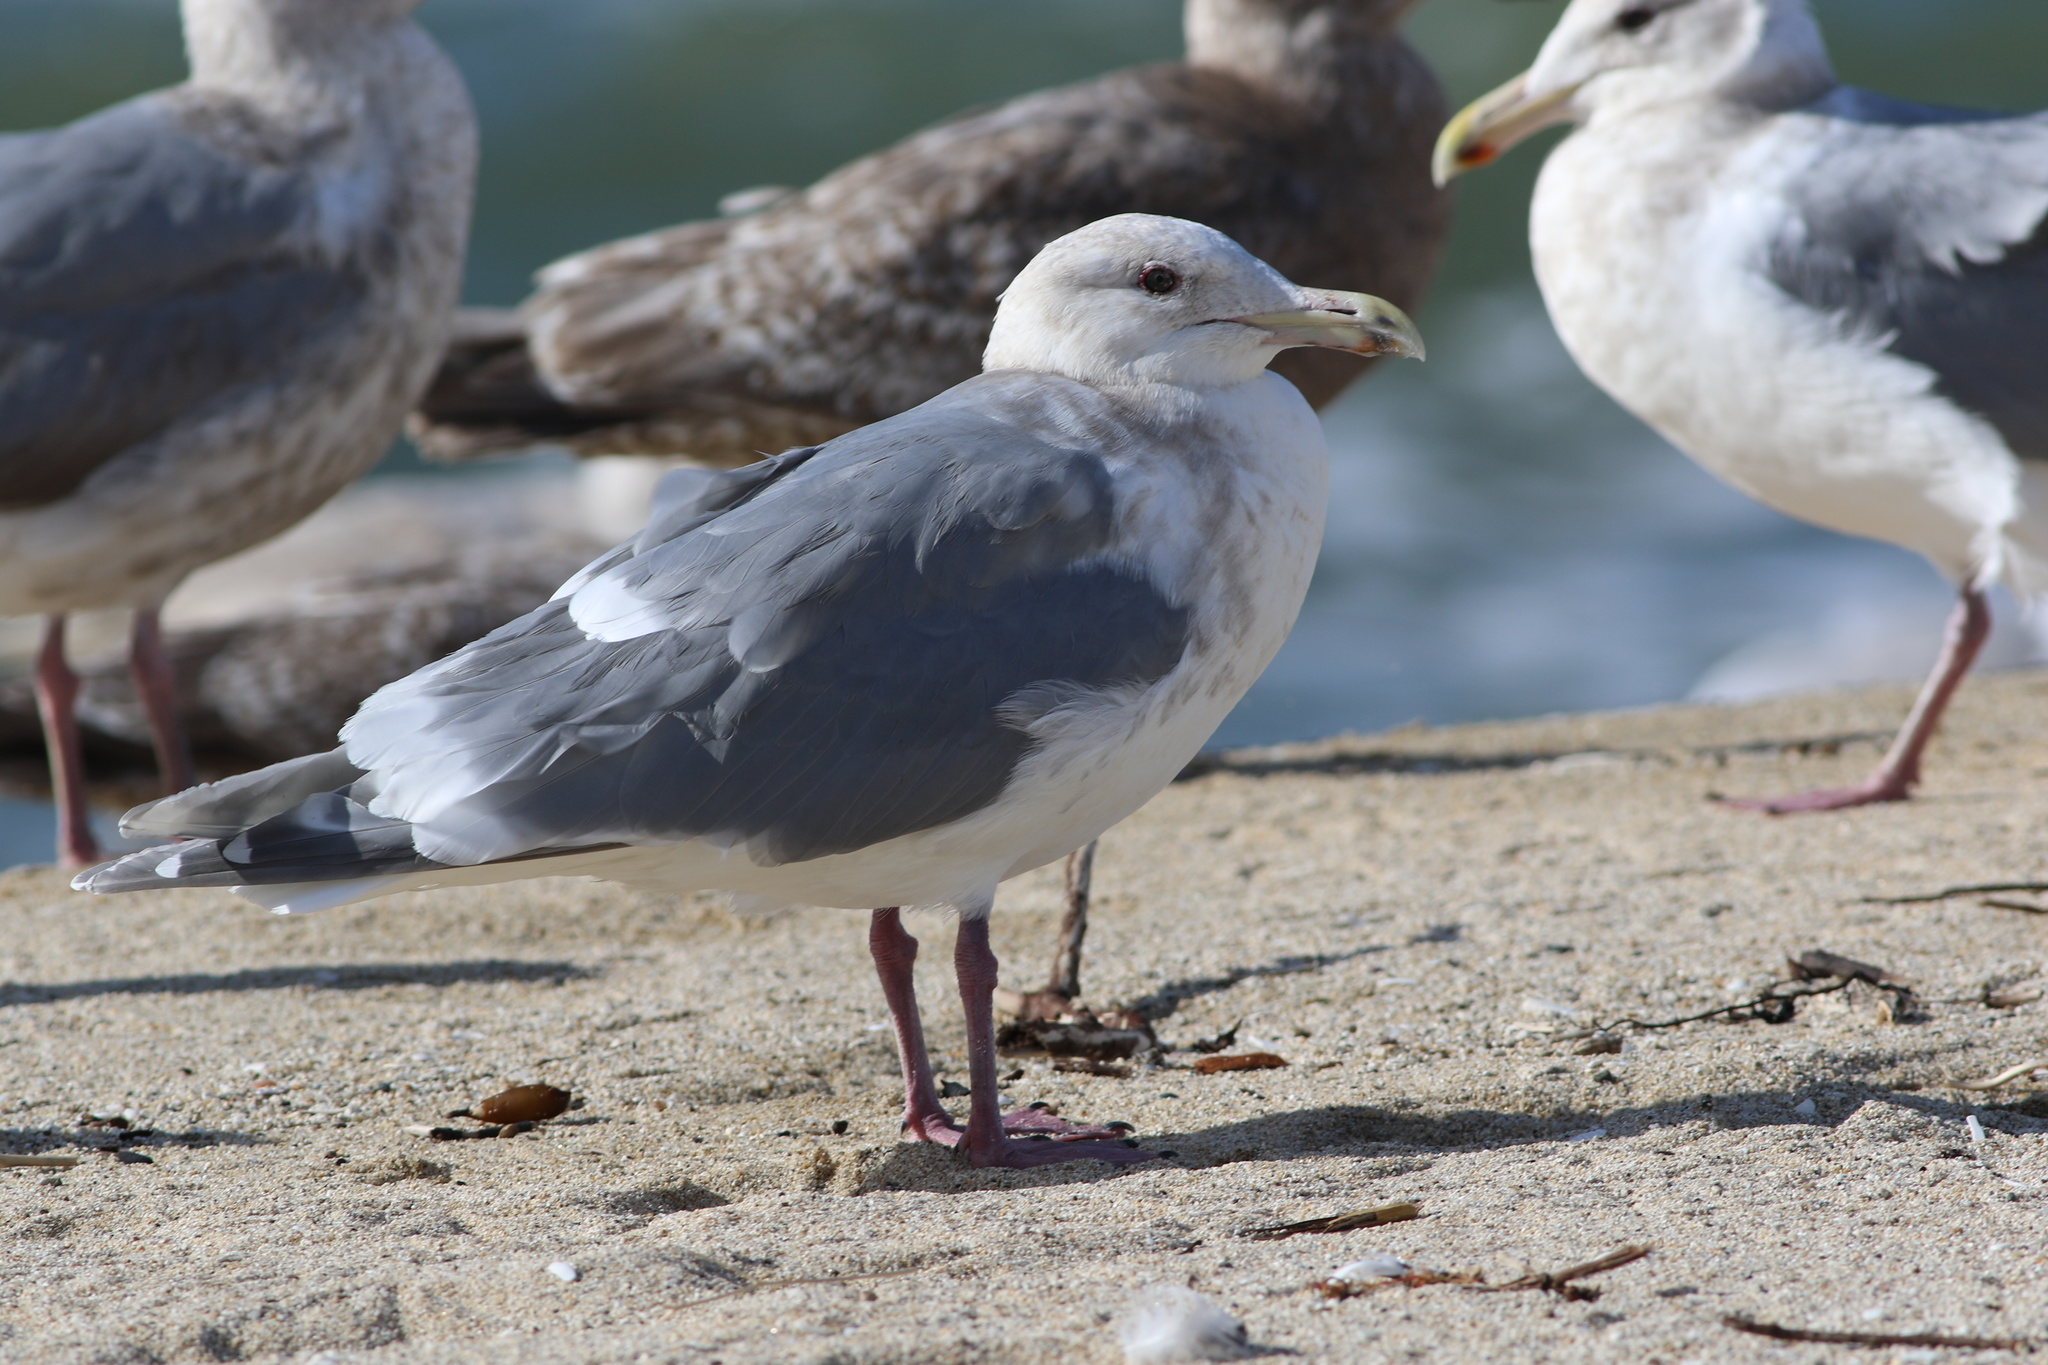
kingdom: Animalia
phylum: Chordata
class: Aves
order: Charadriiformes
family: Laridae
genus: Larus
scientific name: Larus
